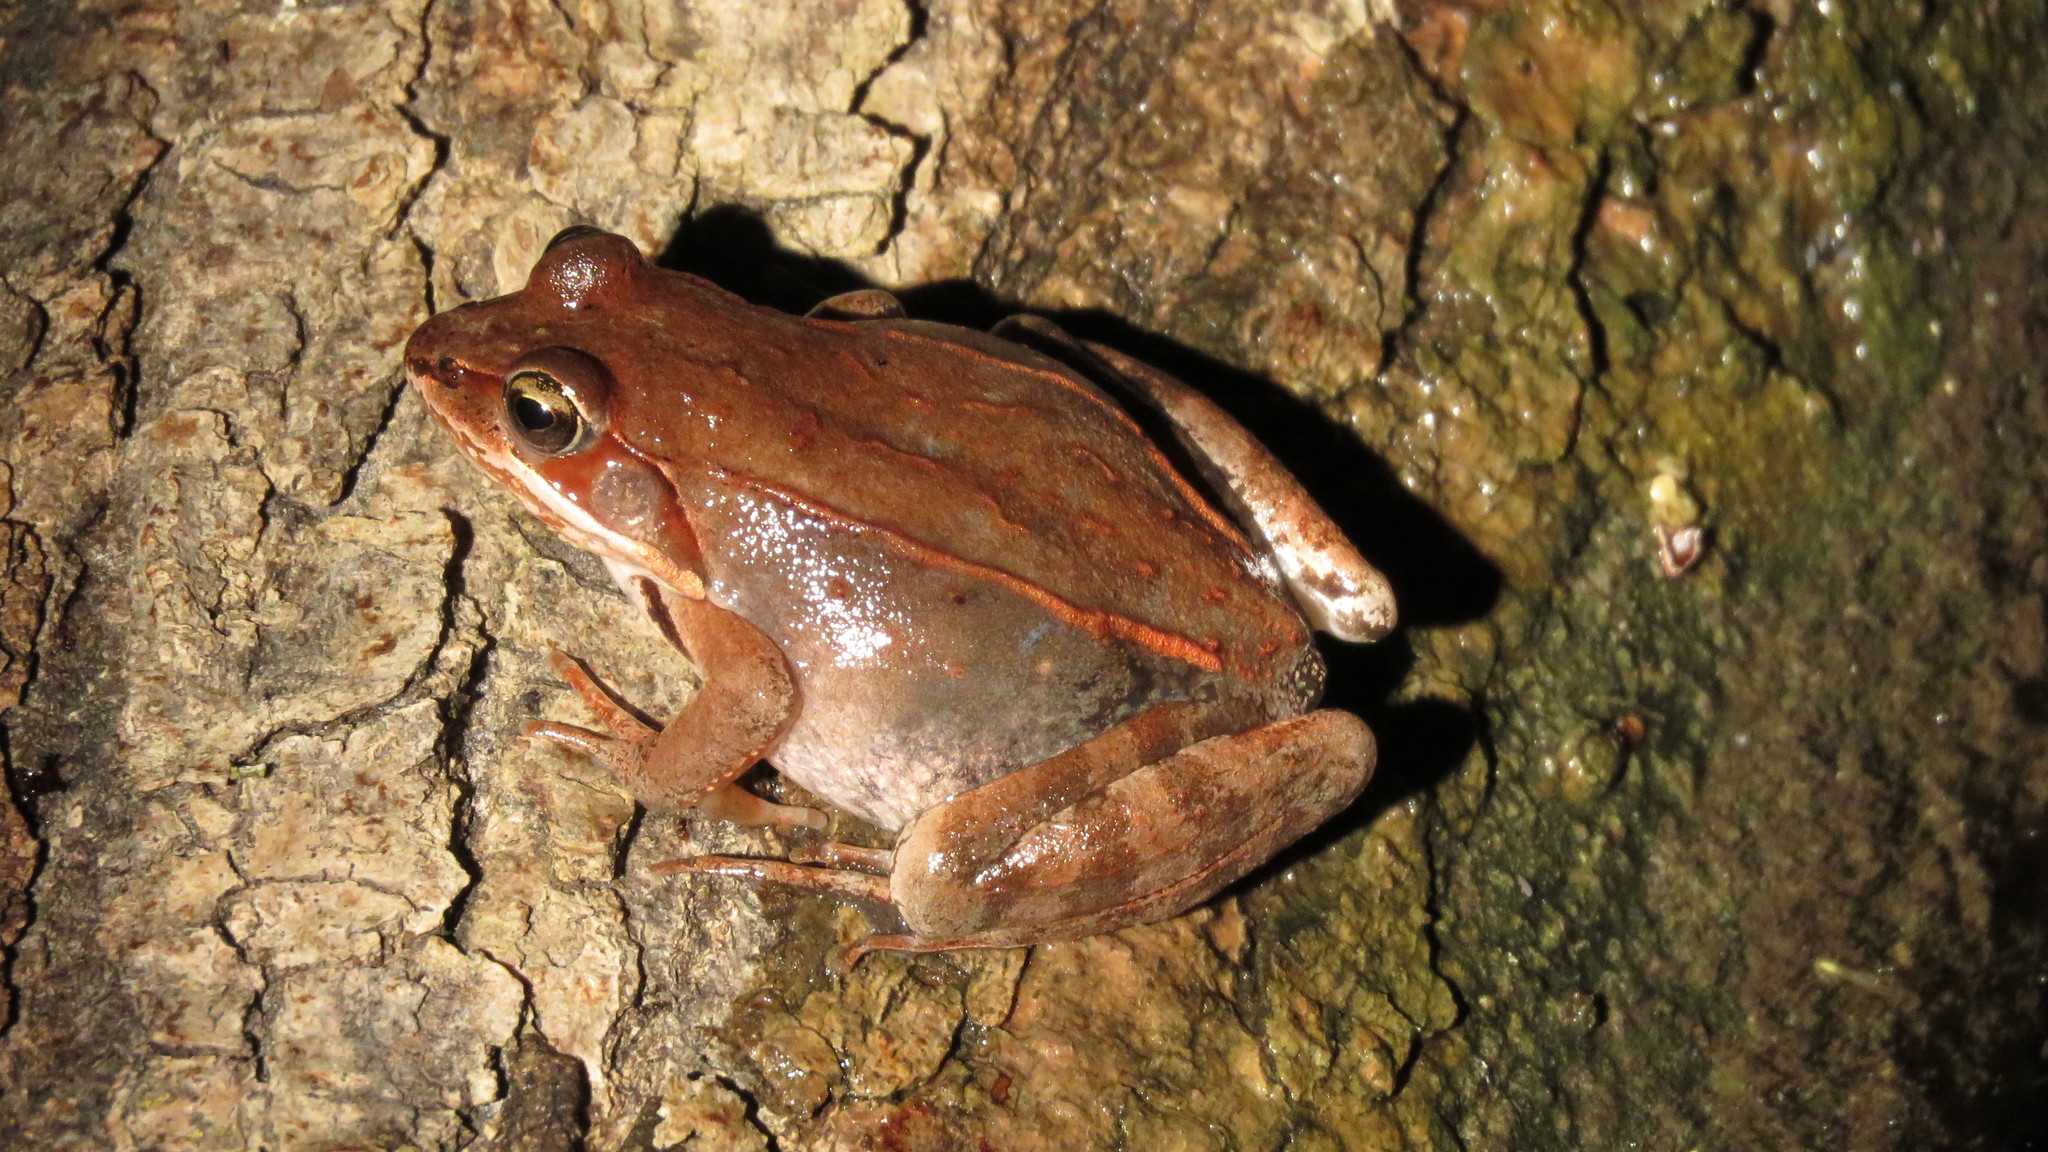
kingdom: Animalia
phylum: Chordata
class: Amphibia
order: Anura
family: Ranidae
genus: Lithobates
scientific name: Lithobates sylvaticus
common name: Wood frog
